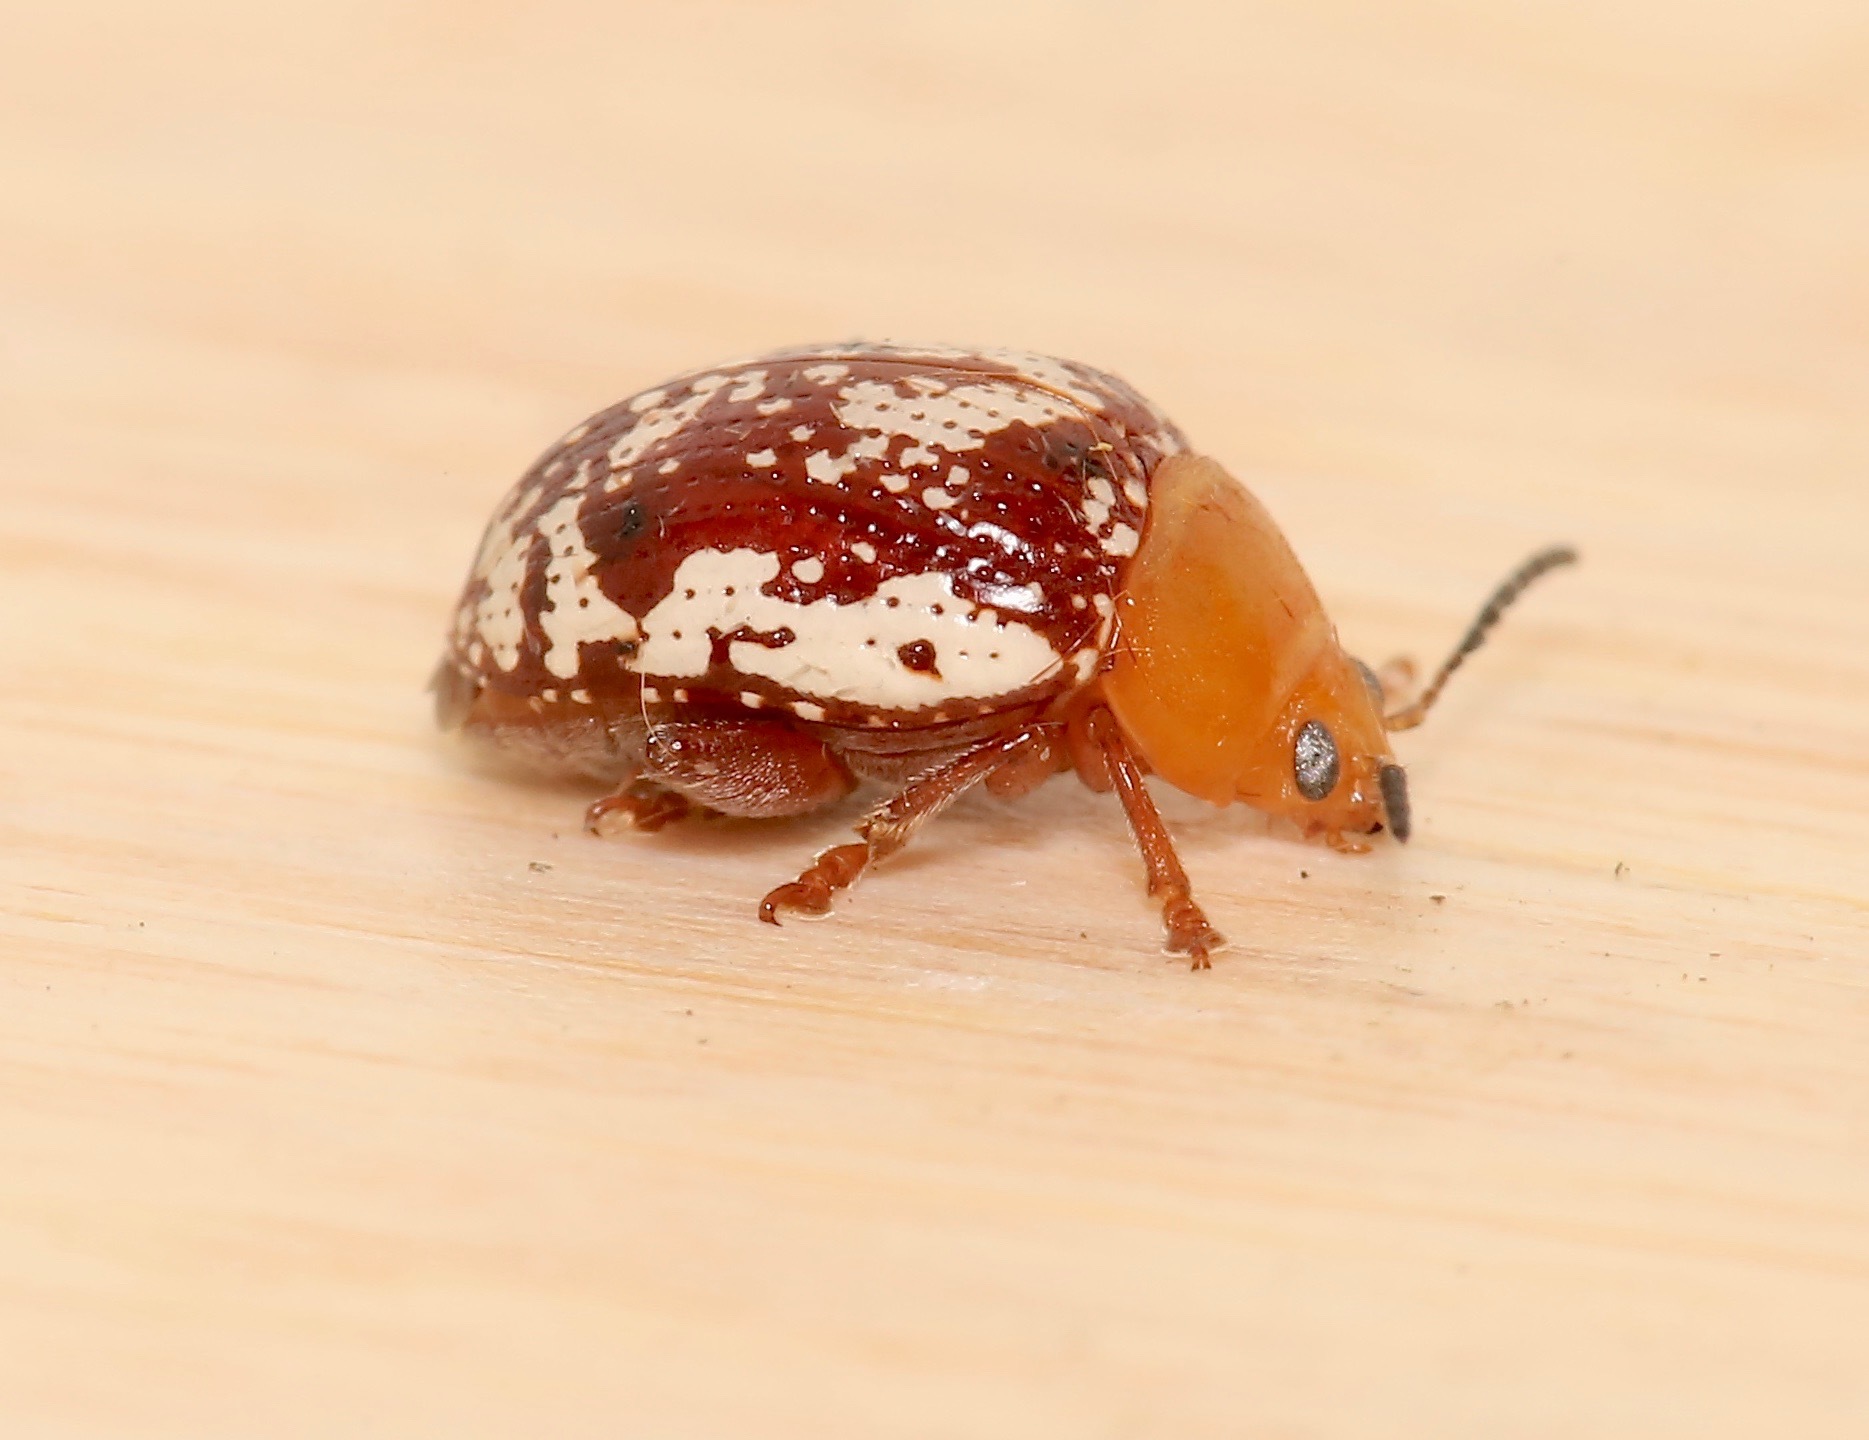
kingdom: Animalia
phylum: Arthropoda
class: Insecta
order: Coleoptera
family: Chrysomelidae
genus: Blepharida
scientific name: Blepharida rhois
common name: Sumac flea beetle
